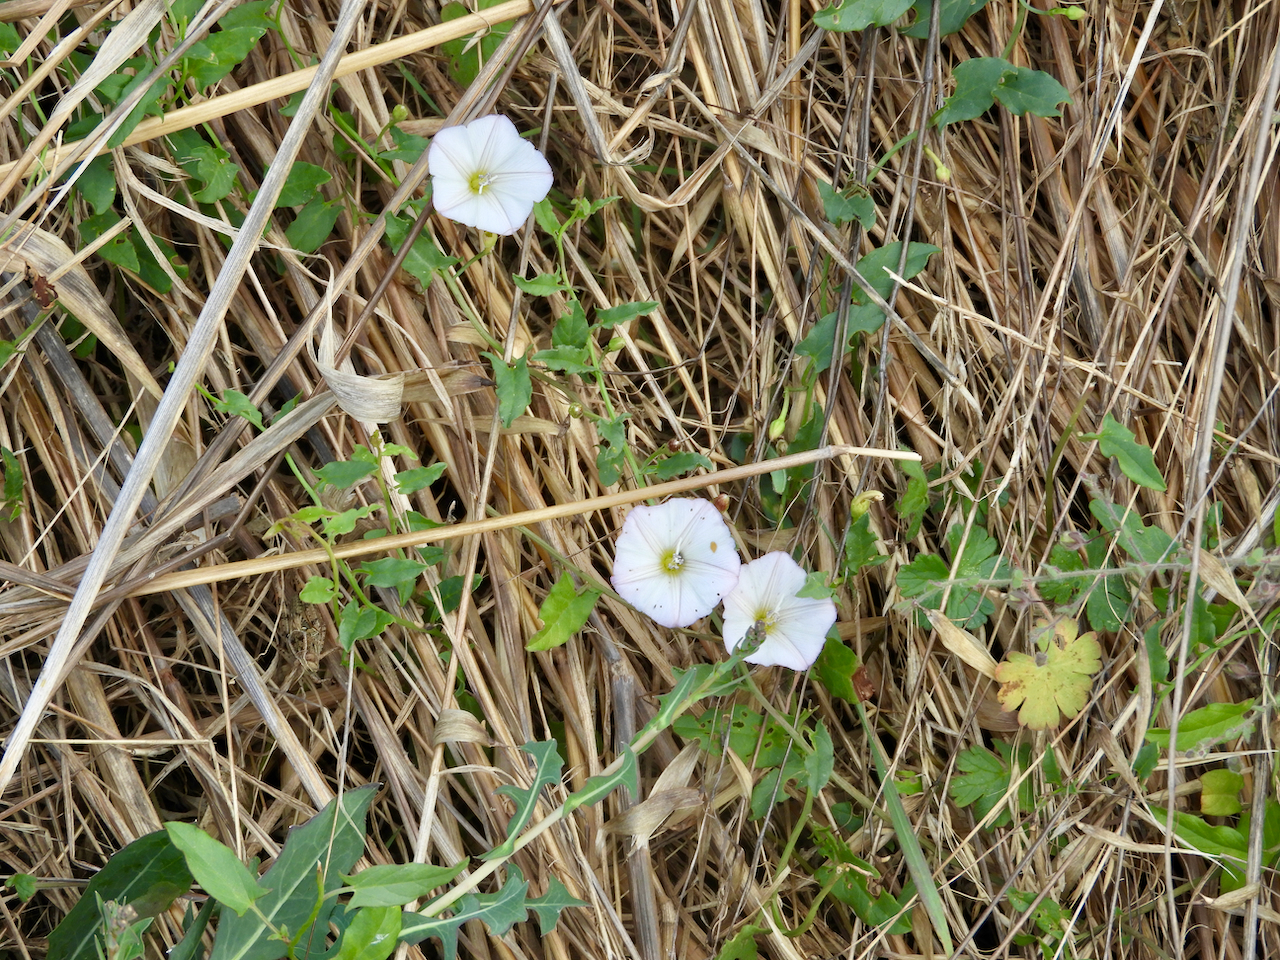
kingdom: Plantae
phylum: Tracheophyta
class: Magnoliopsida
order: Solanales
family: Convolvulaceae
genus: Convolvulus
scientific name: Convolvulus arvensis
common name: Field bindweed
